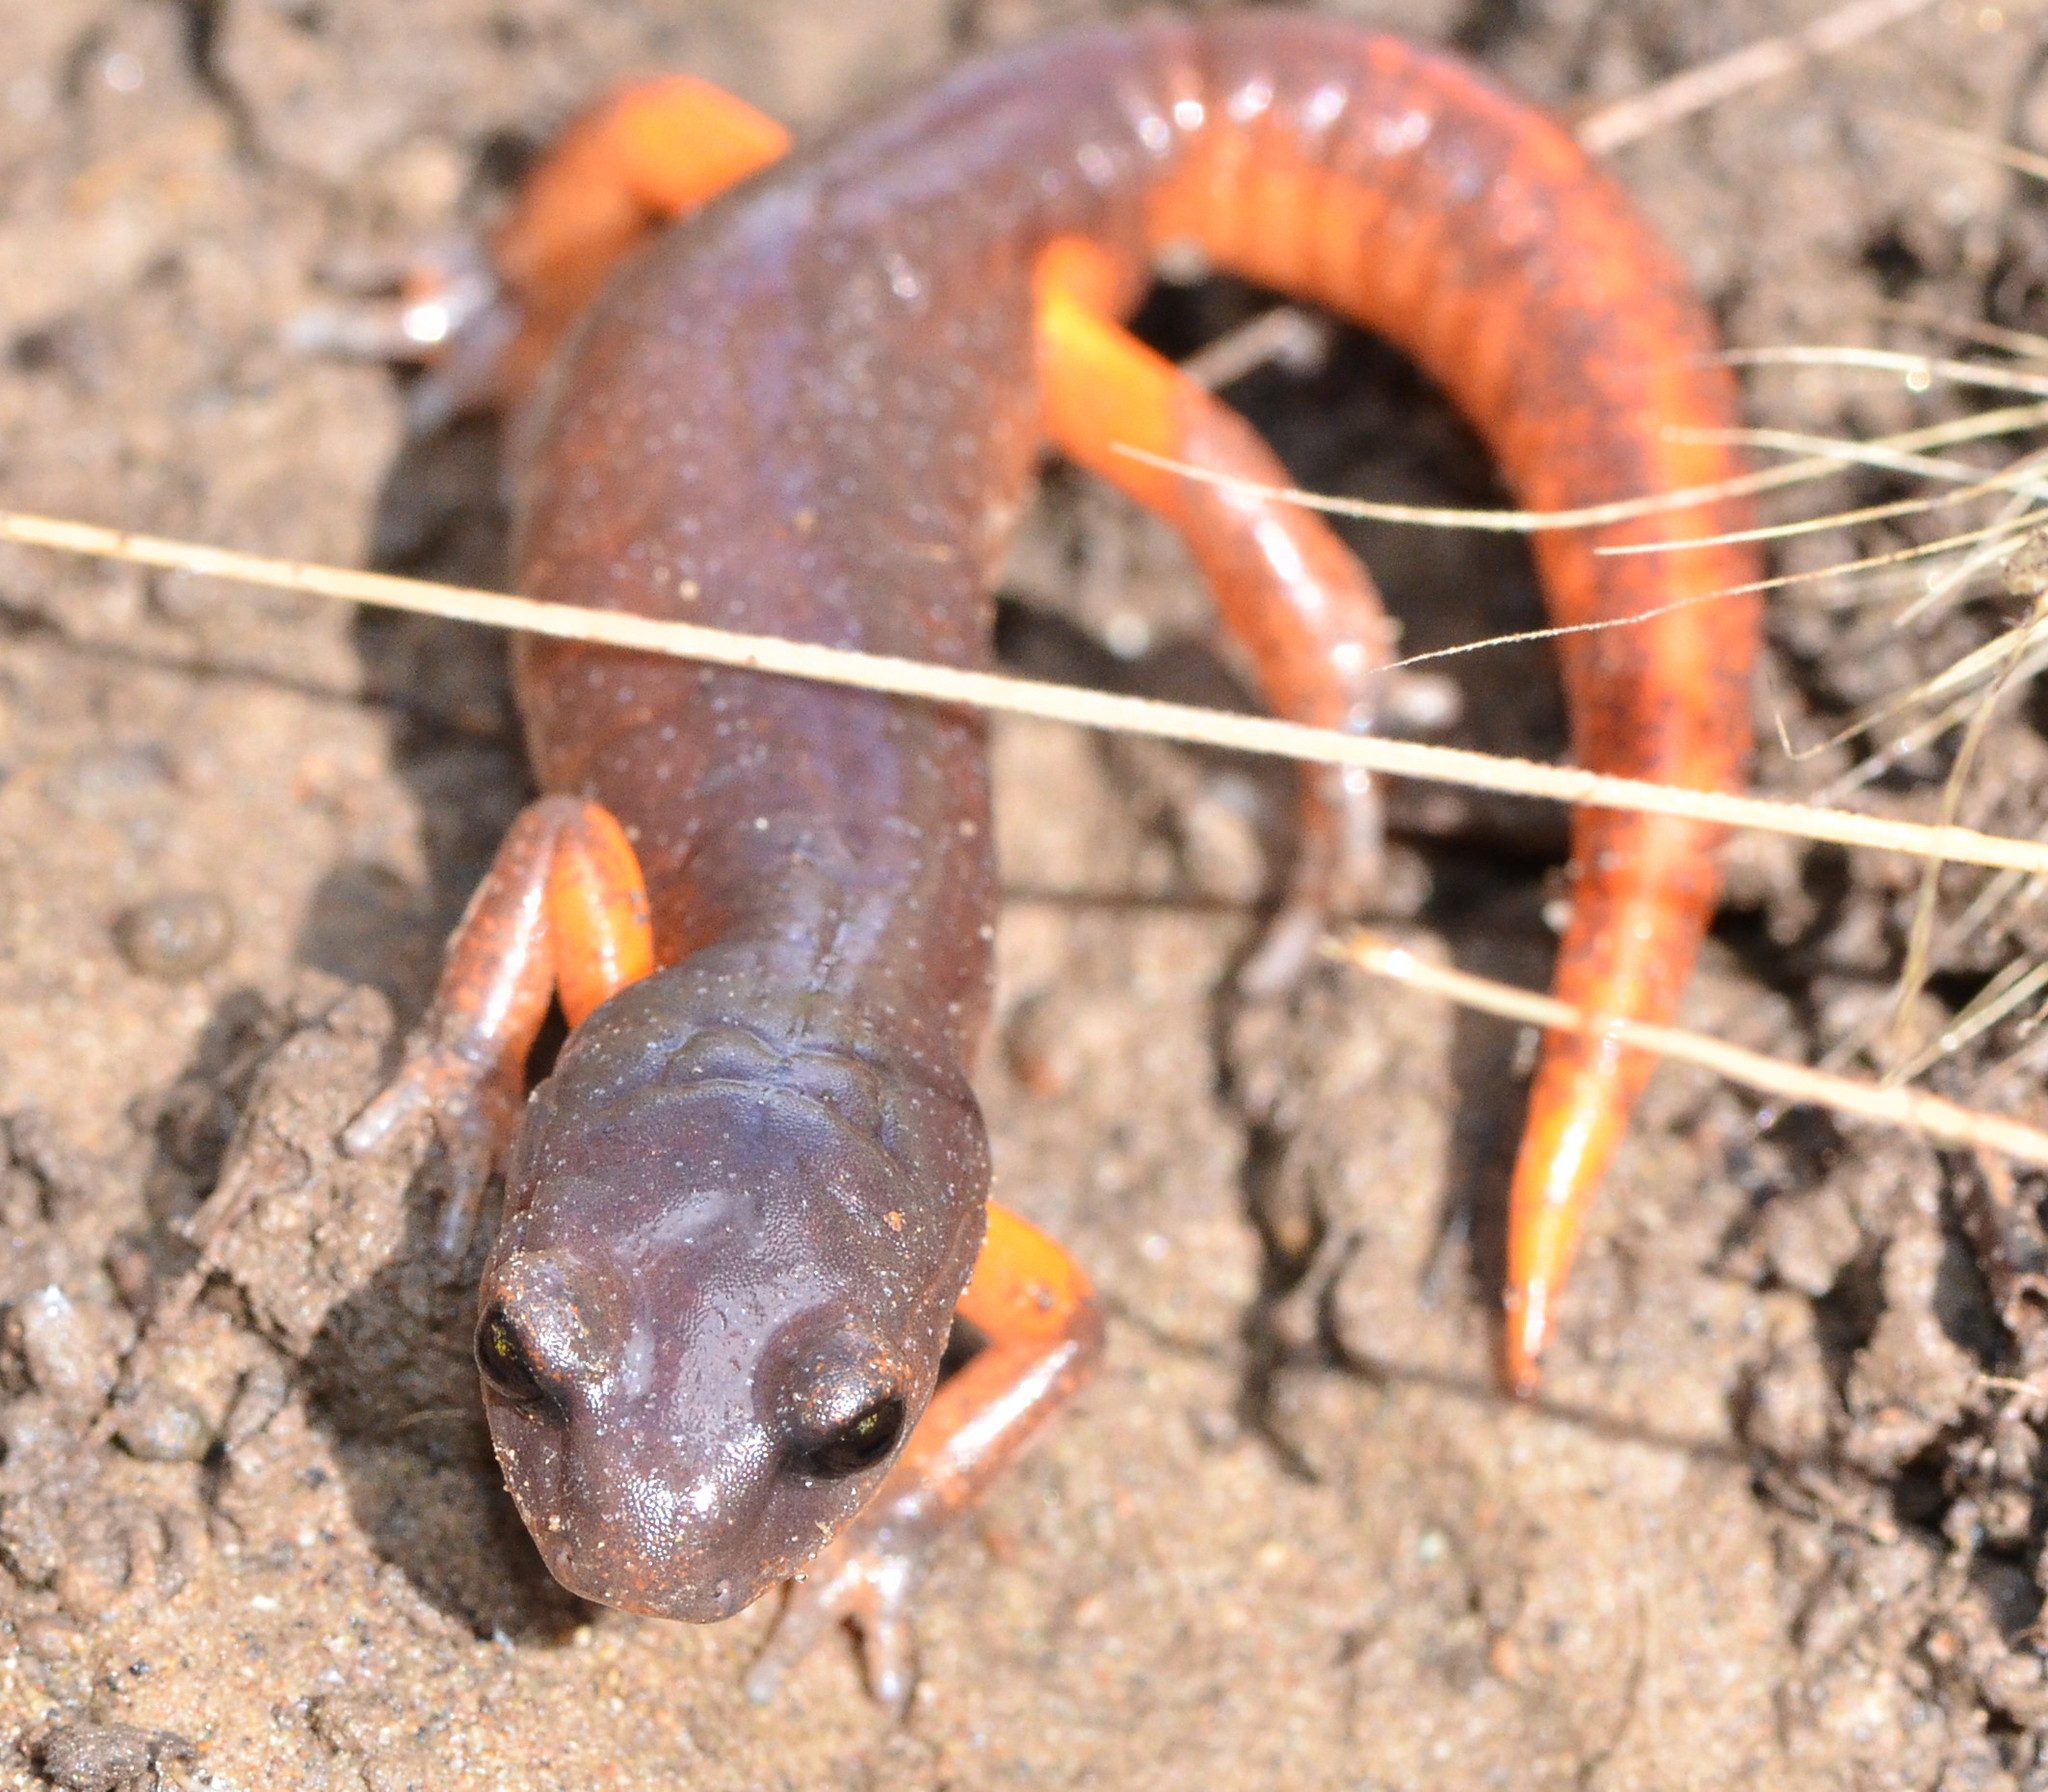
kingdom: Animalia
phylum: Chordata
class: Amphibia
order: Caudata
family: Plethodontidae
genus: Ensatina
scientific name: Ensatina eschscholtzii
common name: Ensatina
